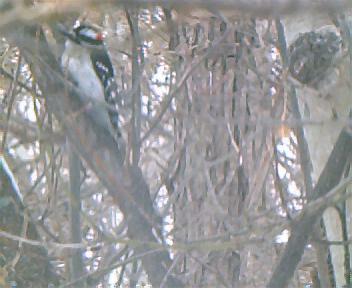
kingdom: Animalia
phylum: Chordata
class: Aves
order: Piciformes
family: Picidae
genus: Dryobates
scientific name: Dryobates pubescens
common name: Downy woodpecker
